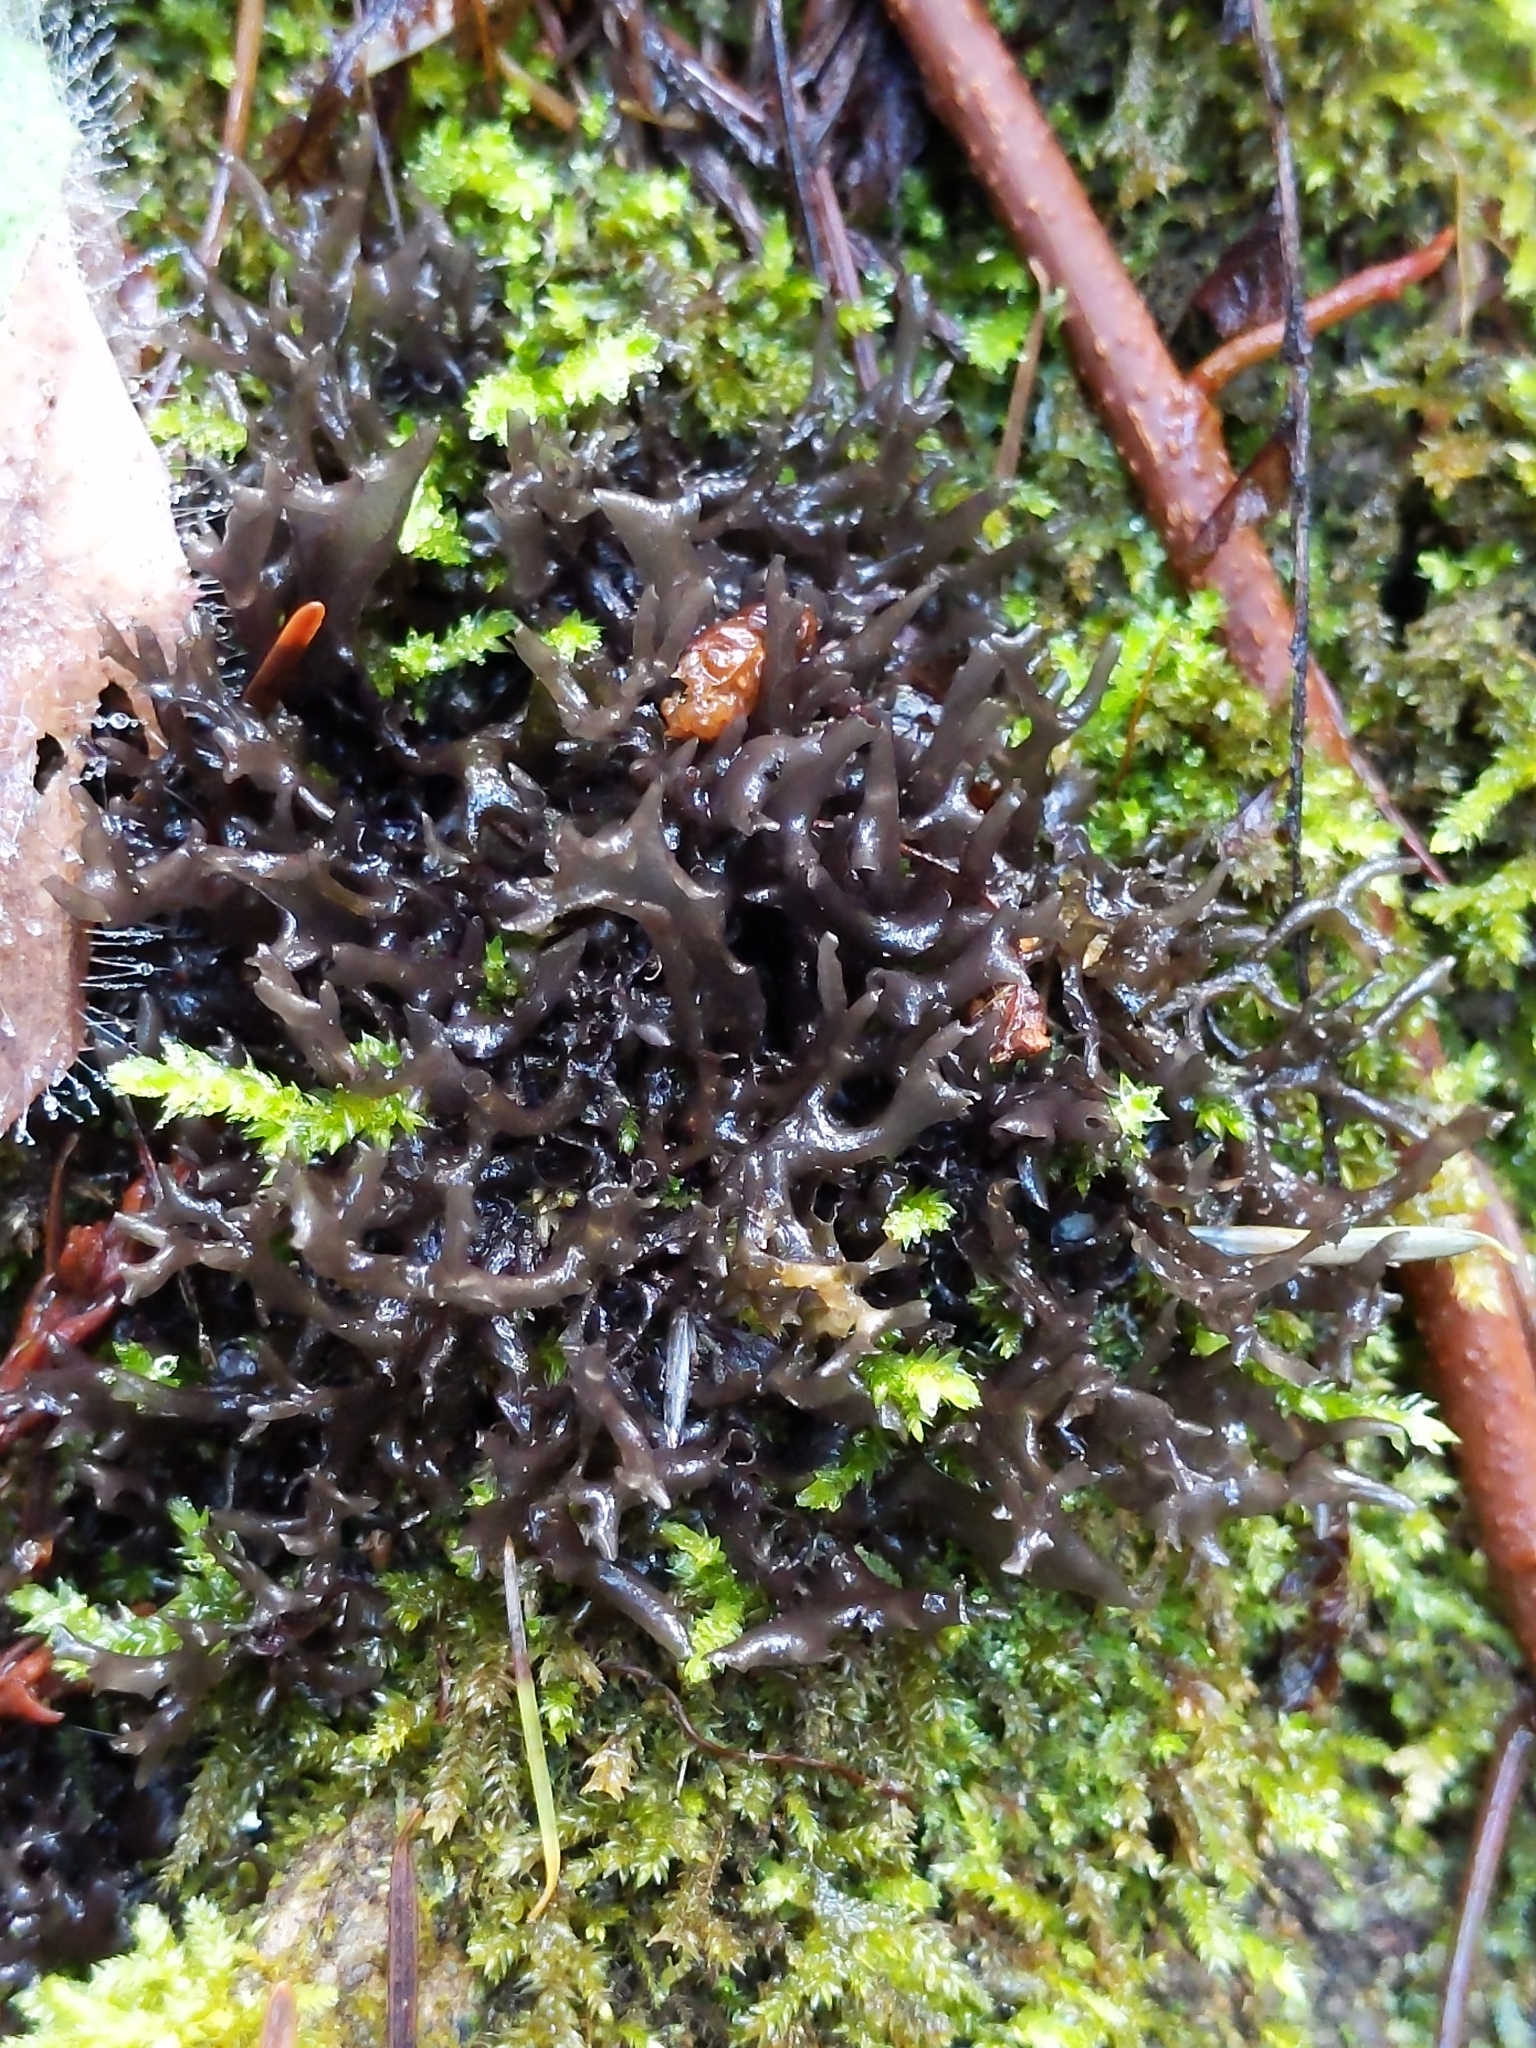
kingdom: Fungi
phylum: Ascomycota
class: Lecanoromycetes
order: Peltigerales
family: Collemataceae
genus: Scytinium
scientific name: Scytinium palmatum
